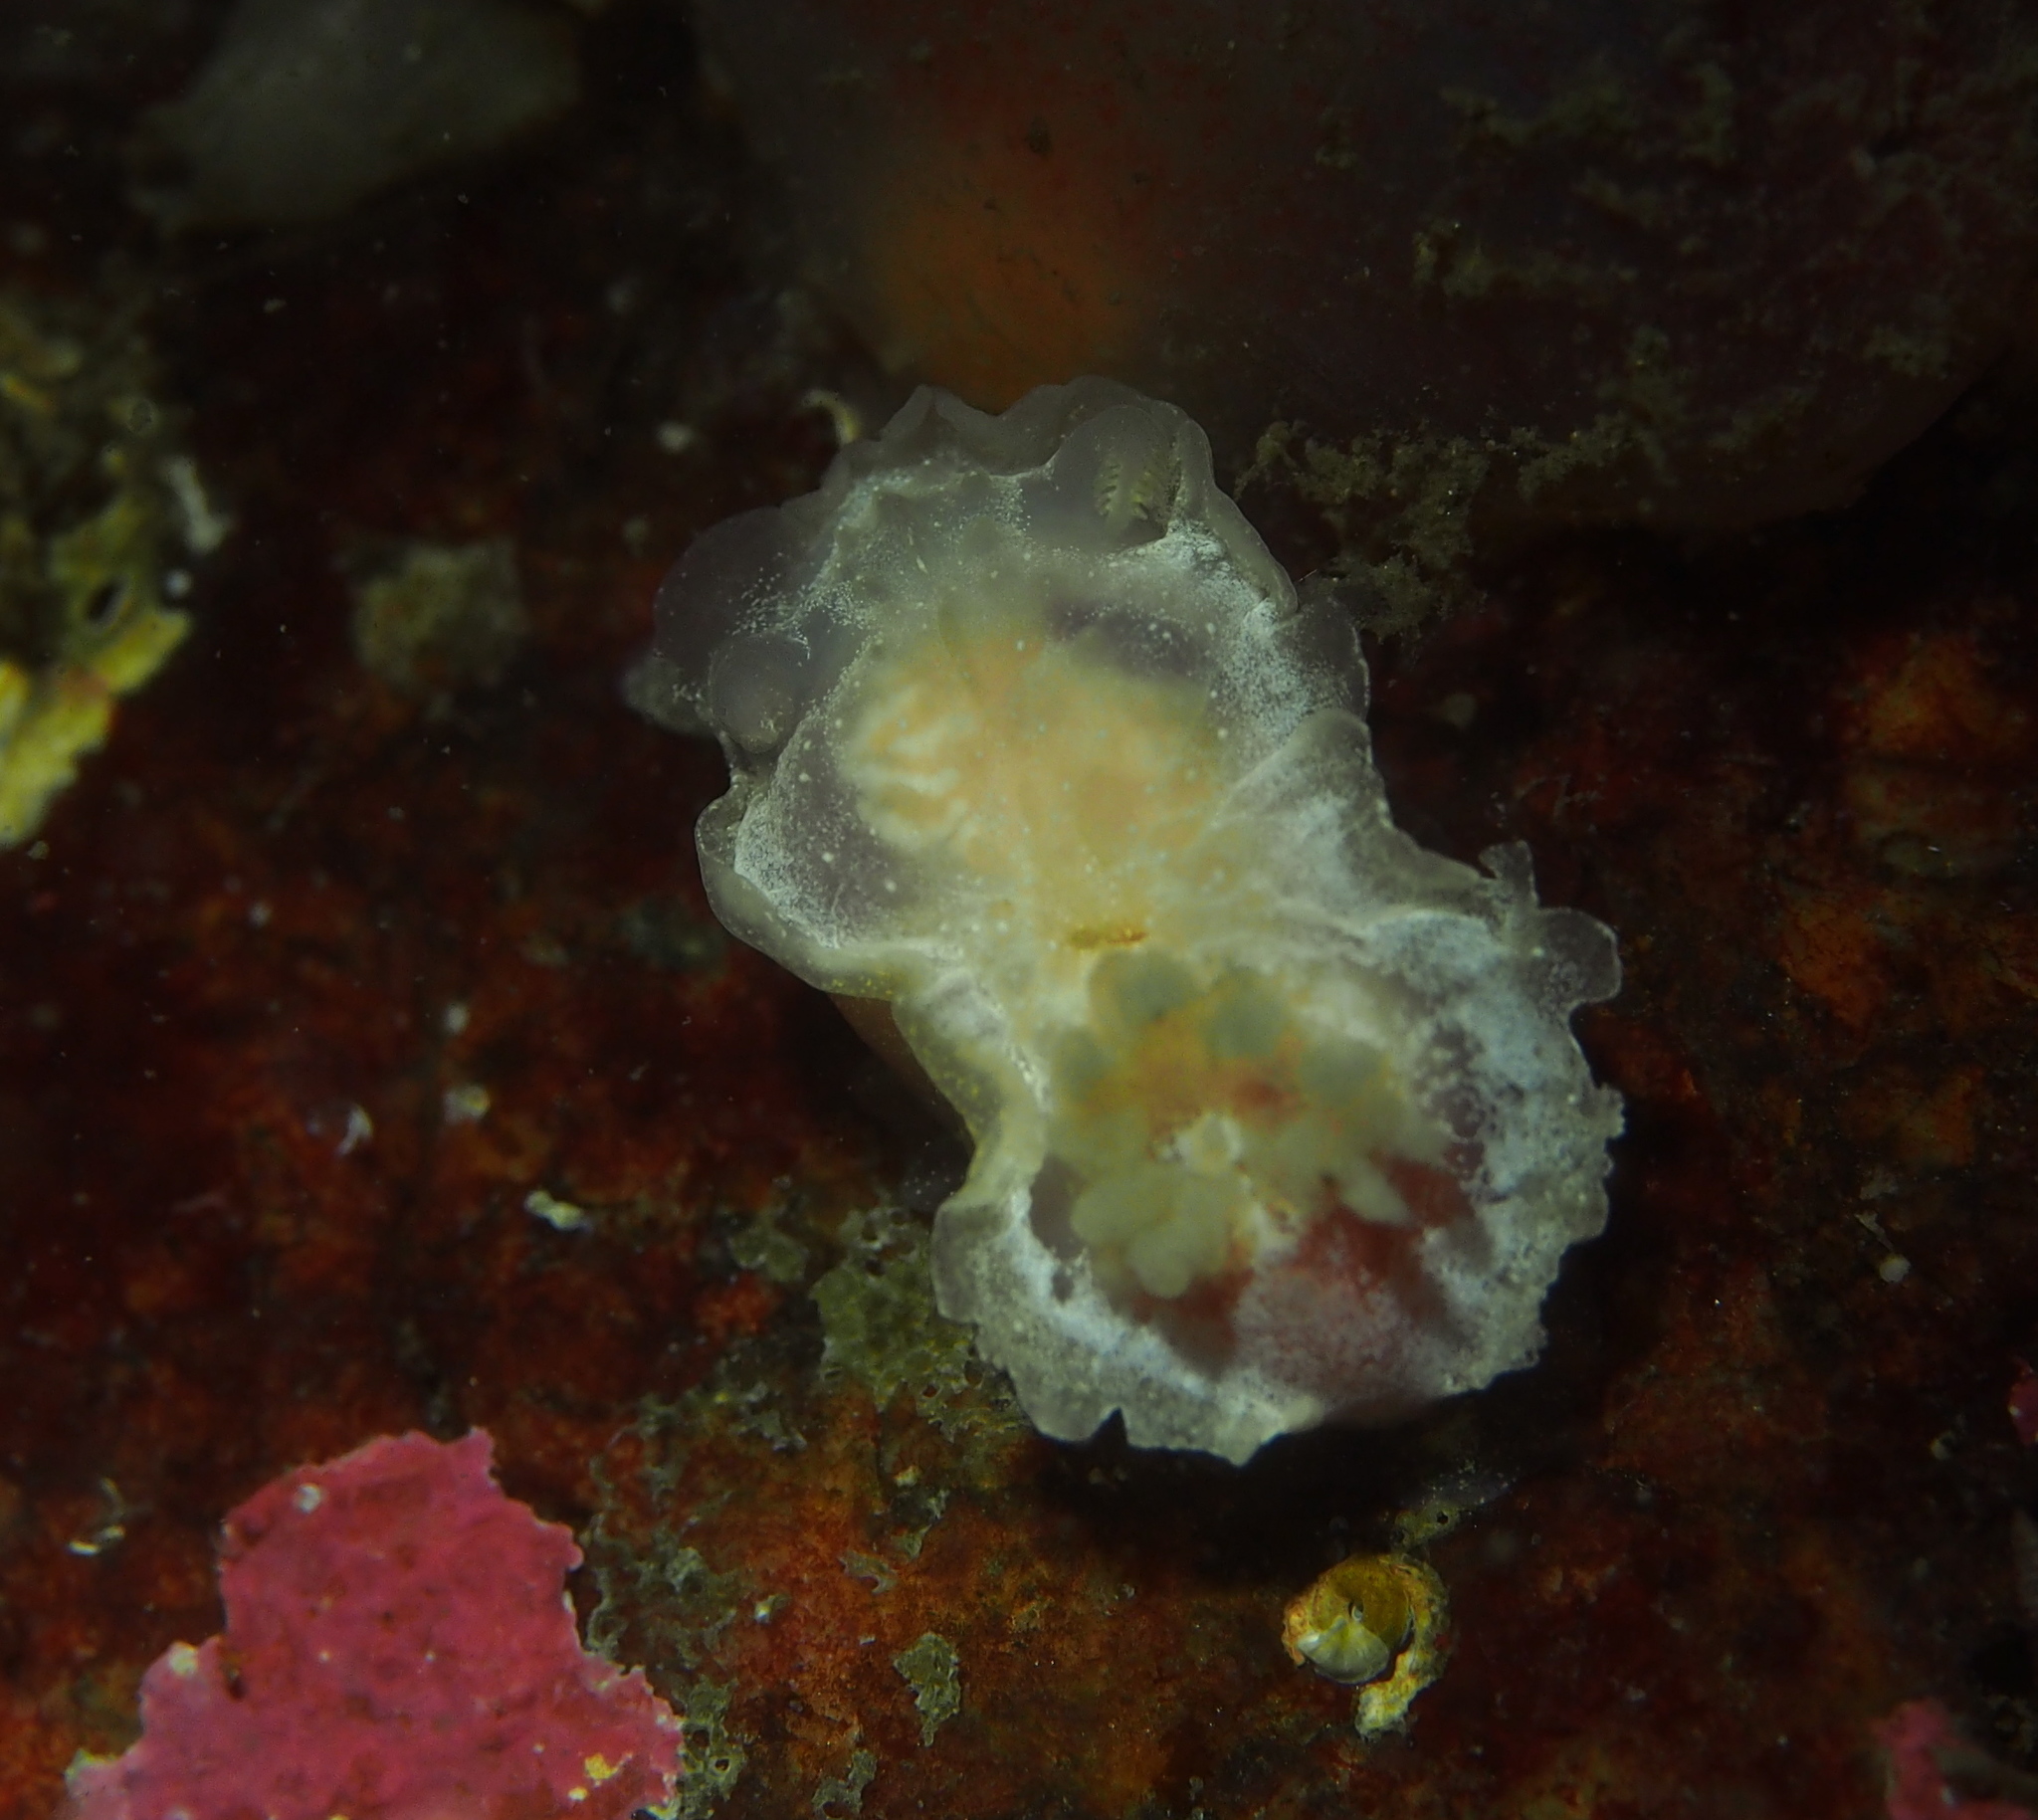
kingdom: Animalia
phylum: Mollusca
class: Gastropoda
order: Nudibranchia
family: Goniodorididae
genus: Okenia
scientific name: Okenia
